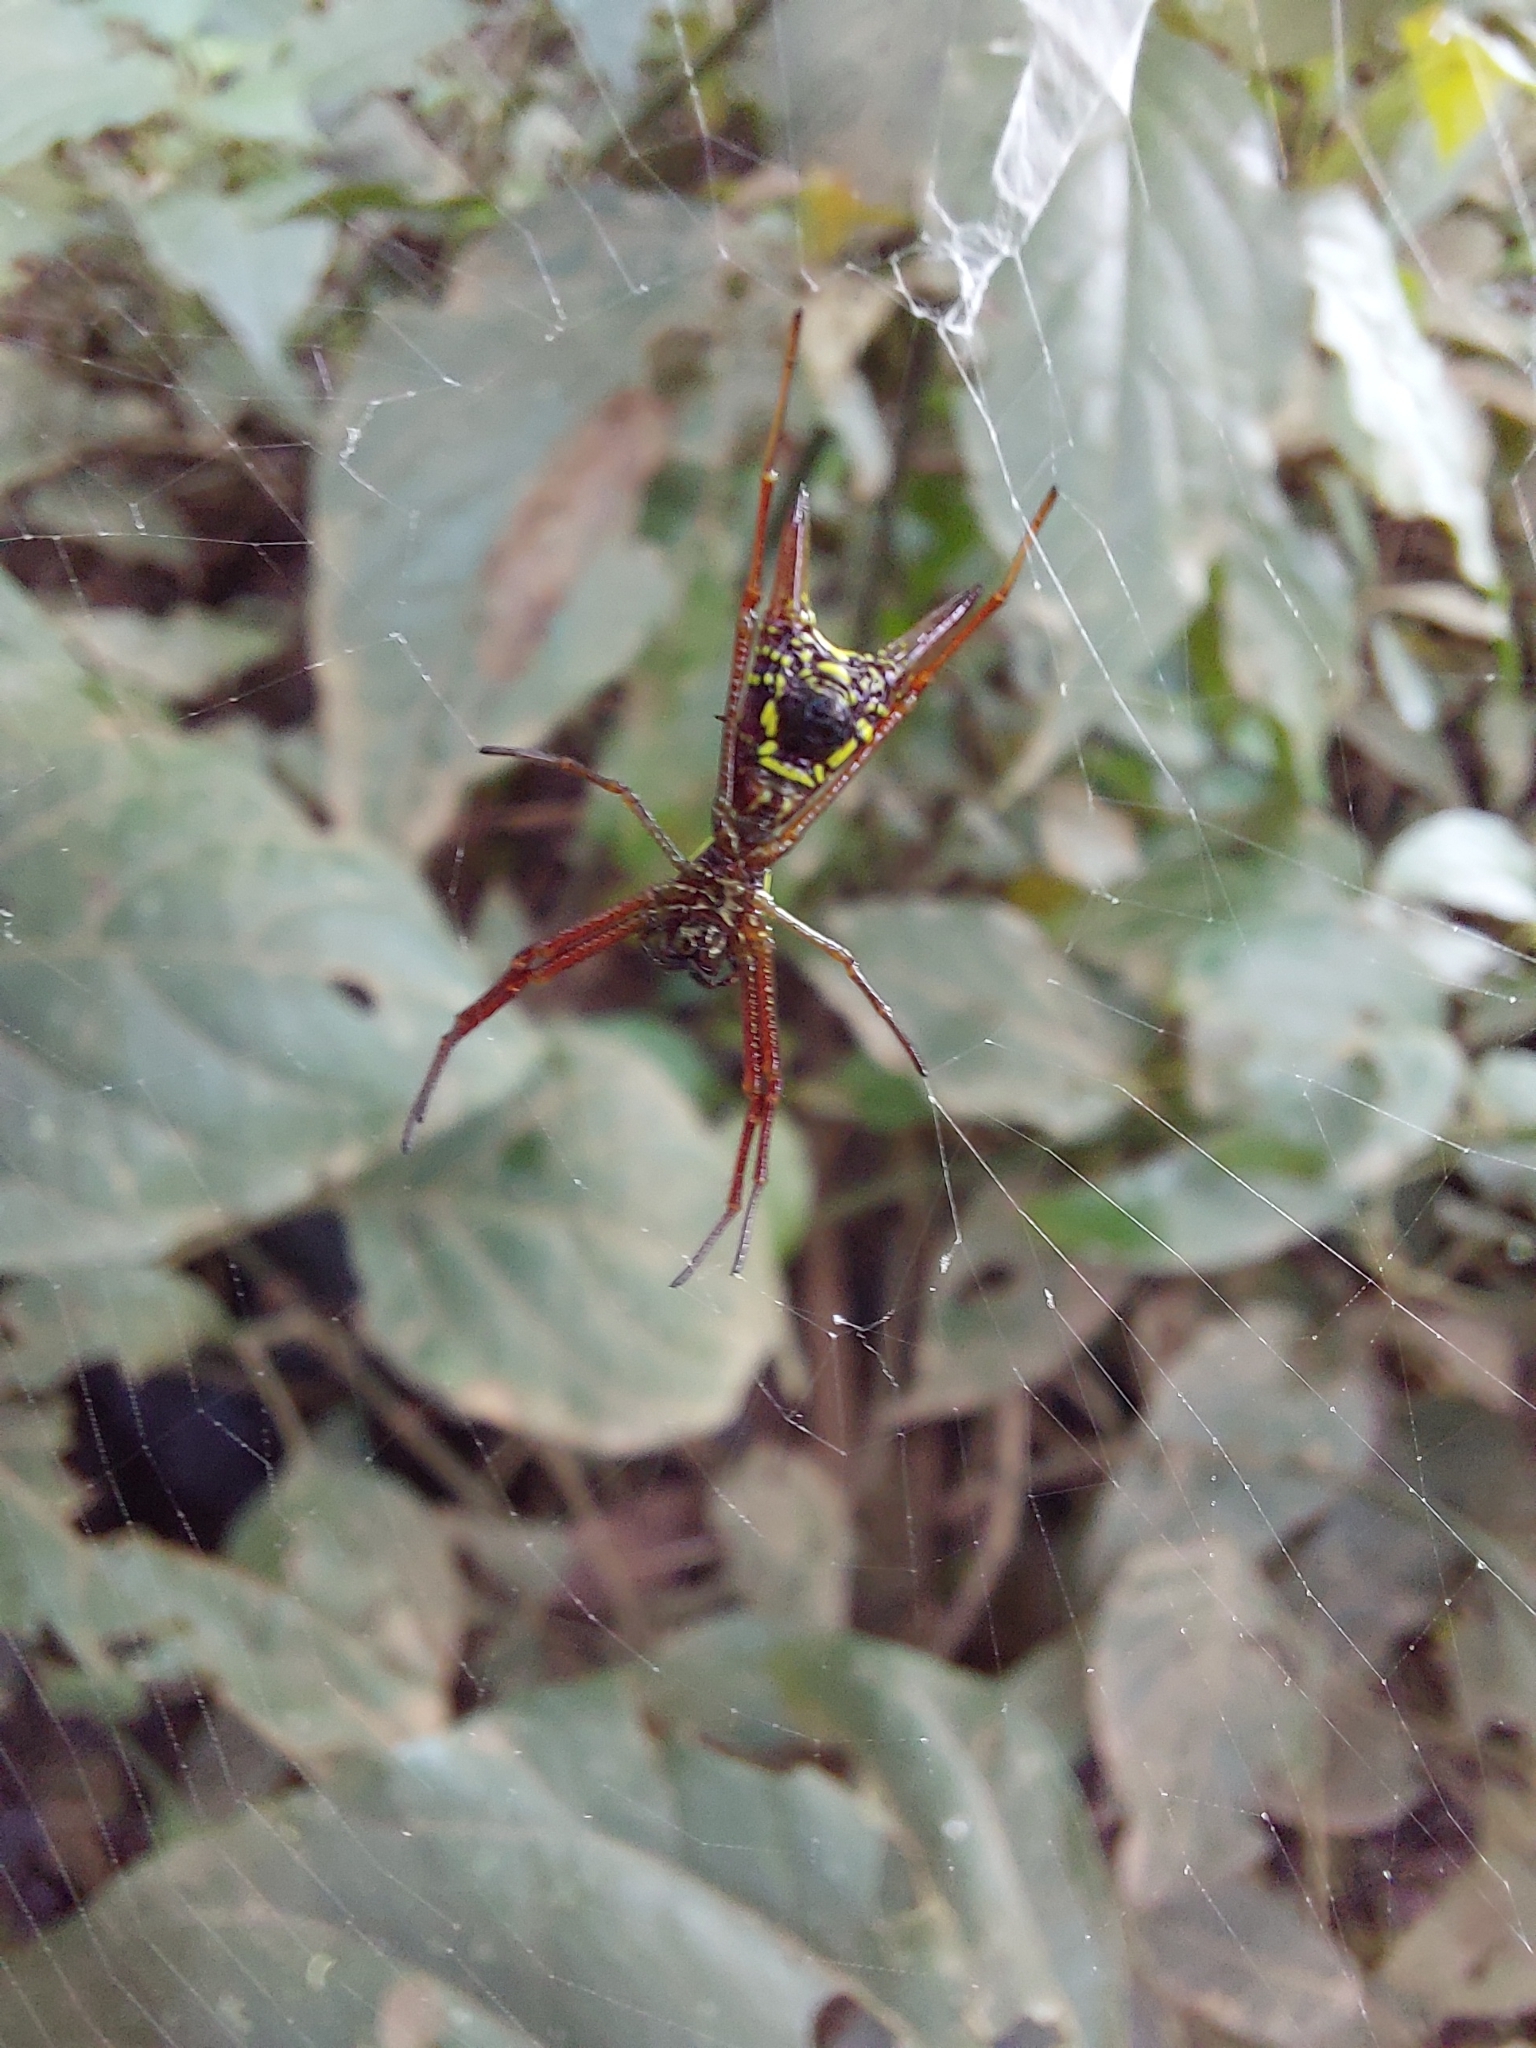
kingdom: Animalia
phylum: Arthropoda
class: Arachnida
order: Araneae
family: Araneidae
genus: Micrathena
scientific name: Micrathena sexspinosa
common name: Orb weavers
